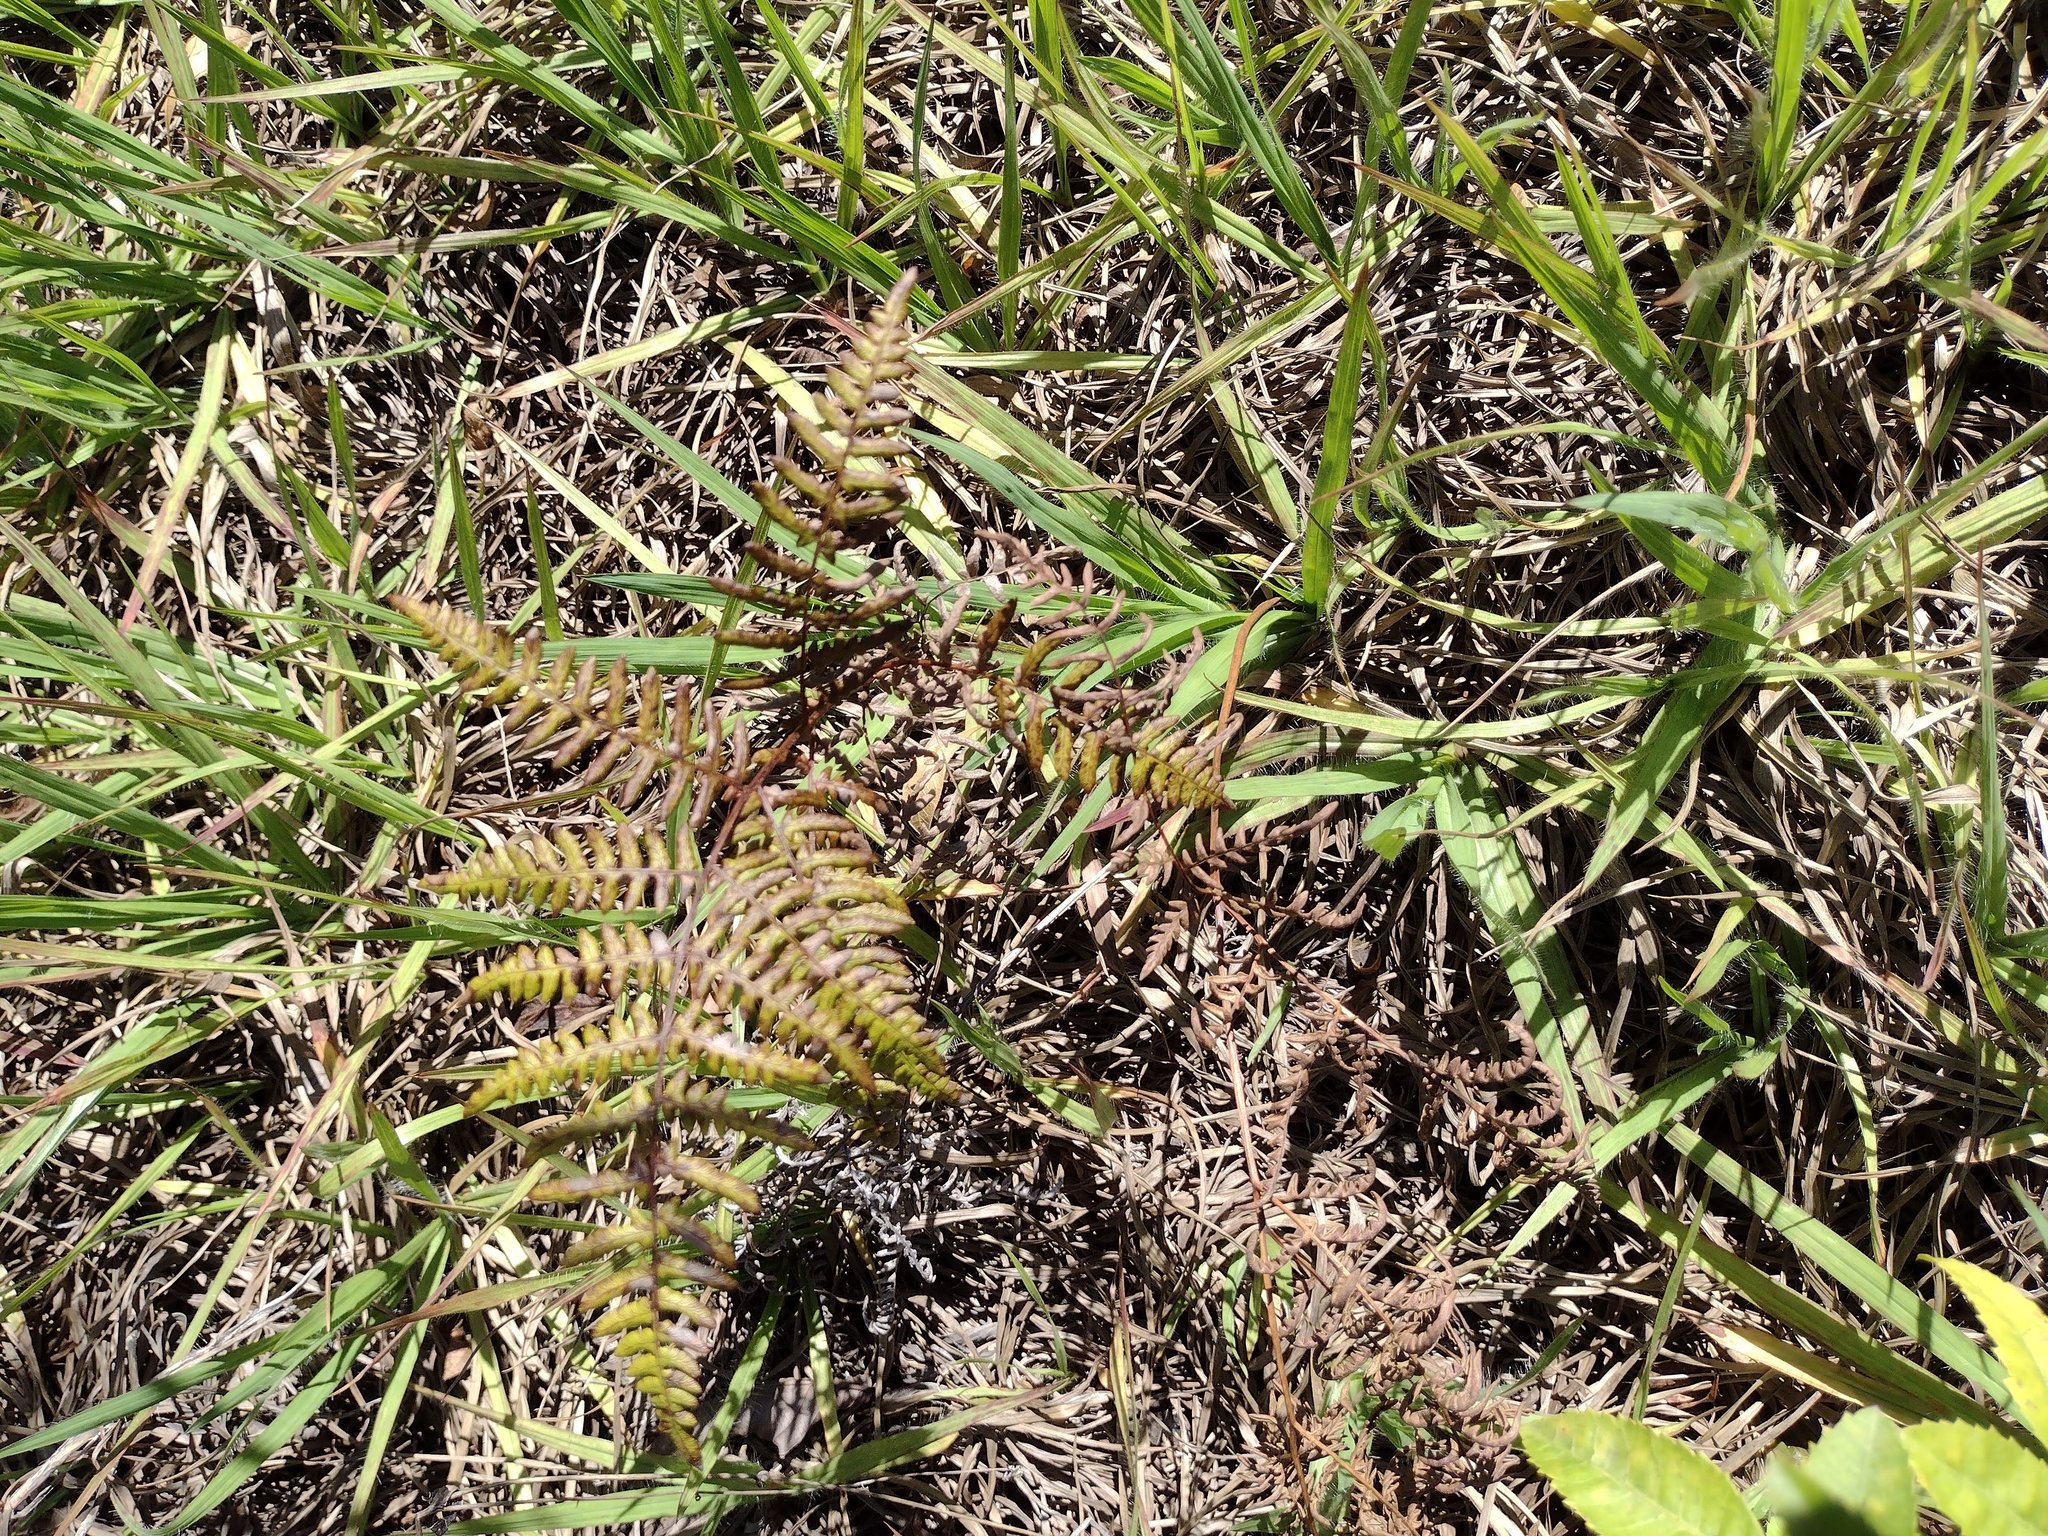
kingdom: Plantae
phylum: Tracheophyta
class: Polypodiopsida
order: Polypodiales
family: Dennstaedtiaceae
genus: Pteridium
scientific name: Pteridium aquilinum
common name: Bracken
